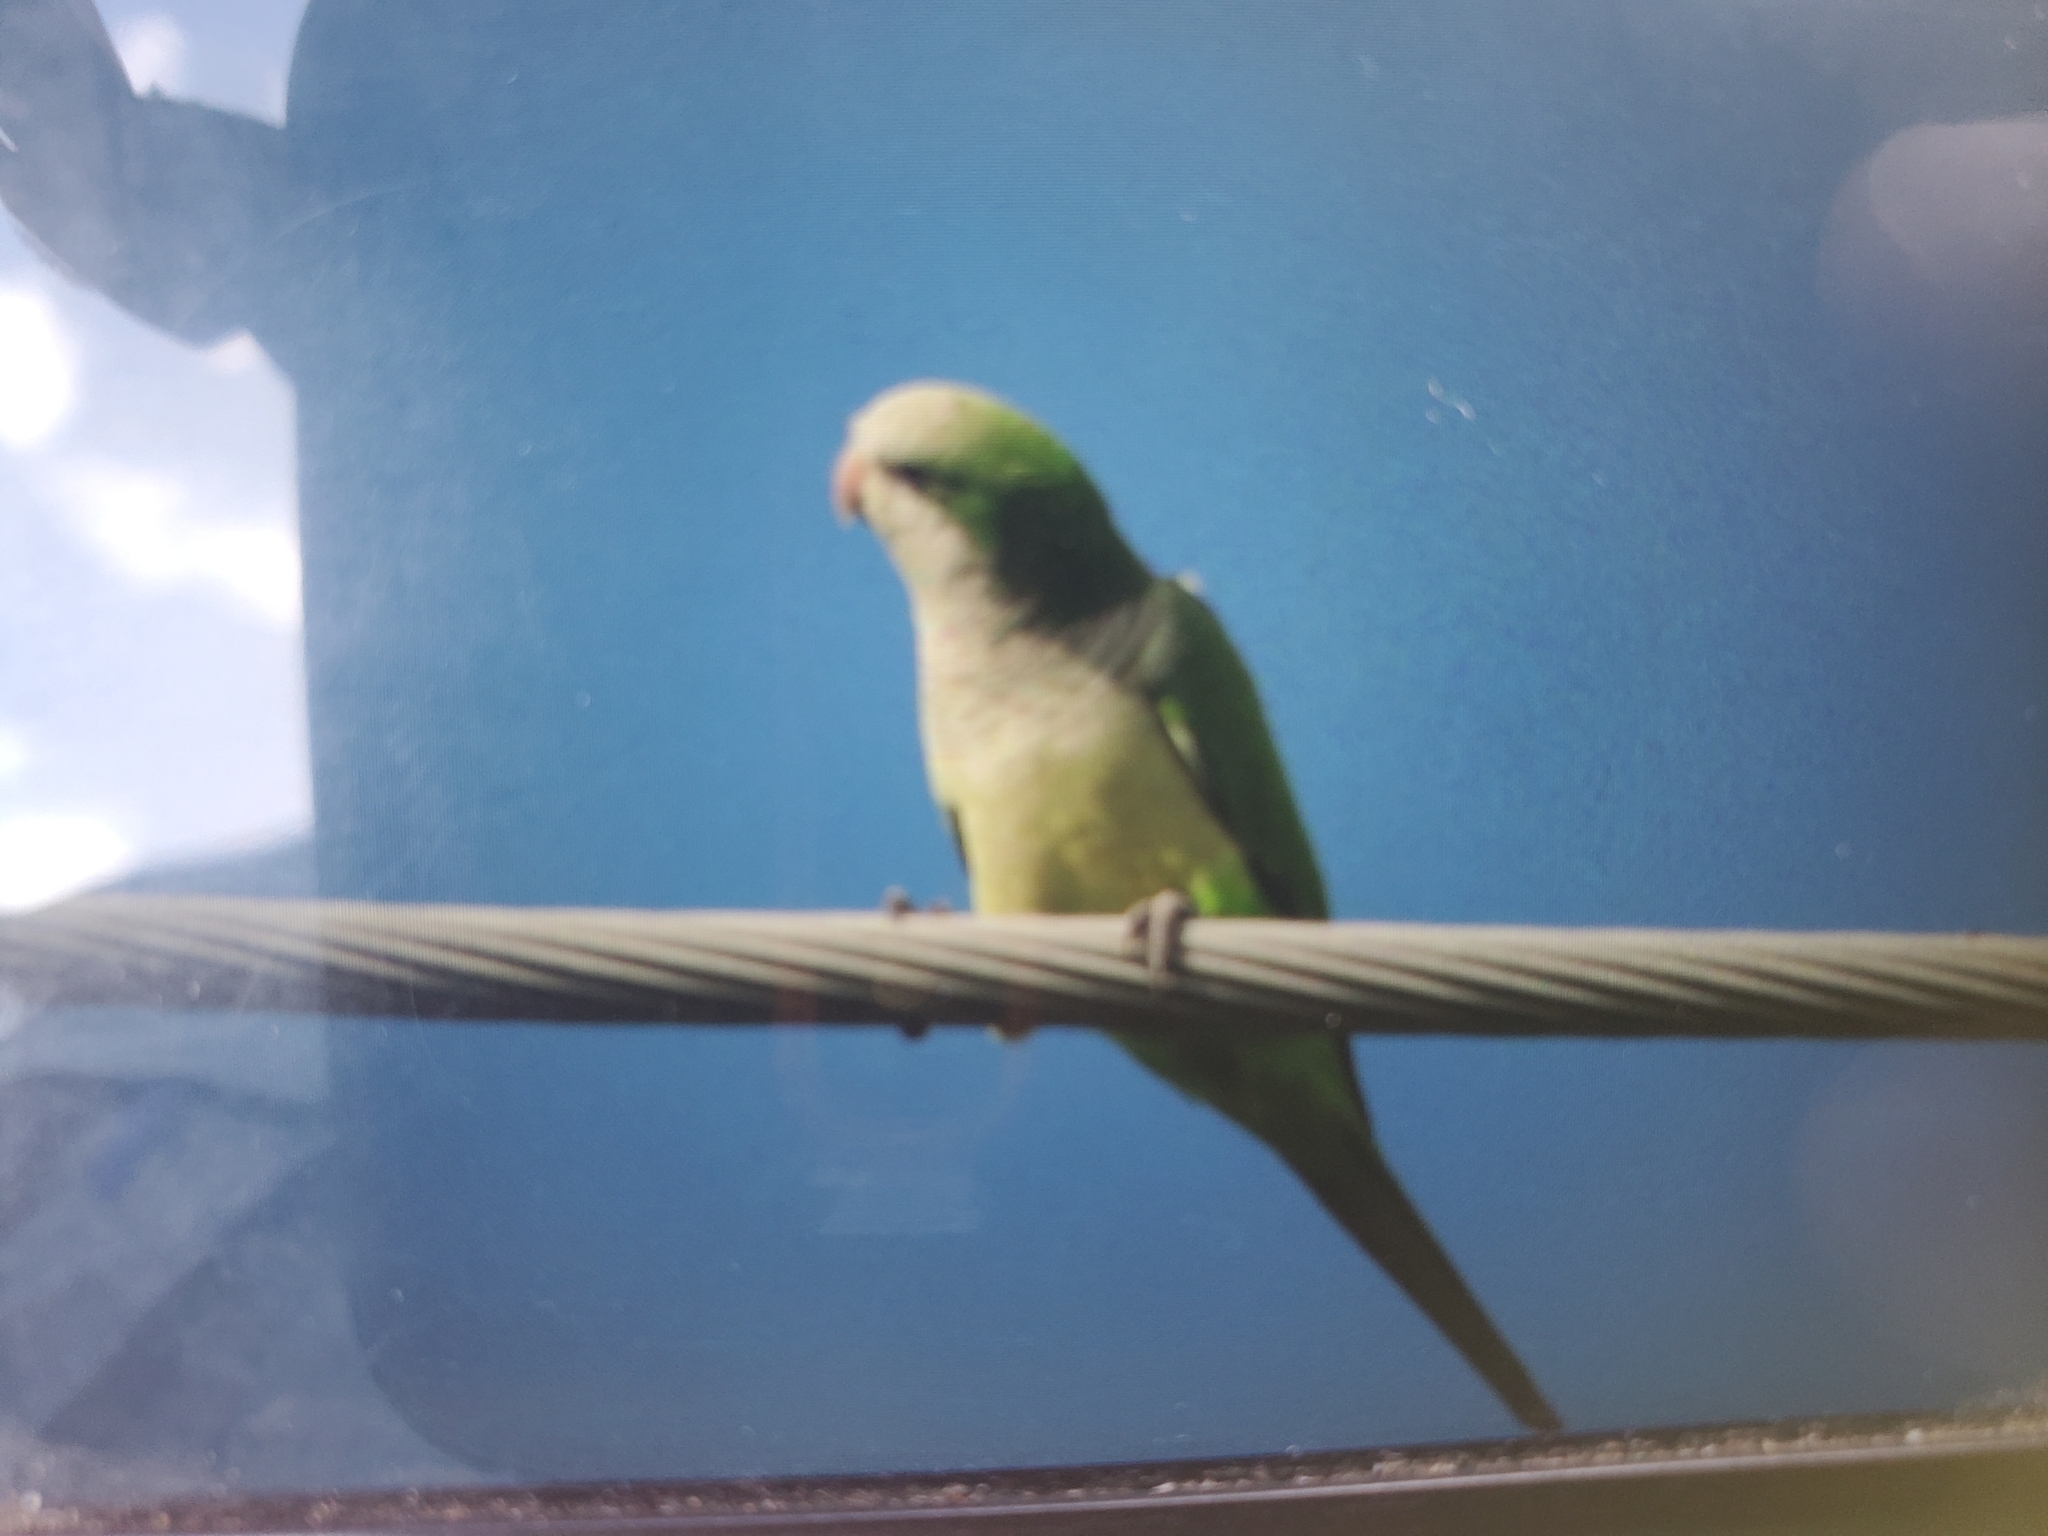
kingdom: Animalia
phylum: Chordata
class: Aves
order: Psittaciformes
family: Psittacidae
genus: Myiopsitta
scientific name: Myiopsitta monachus
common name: Monk parakeet
